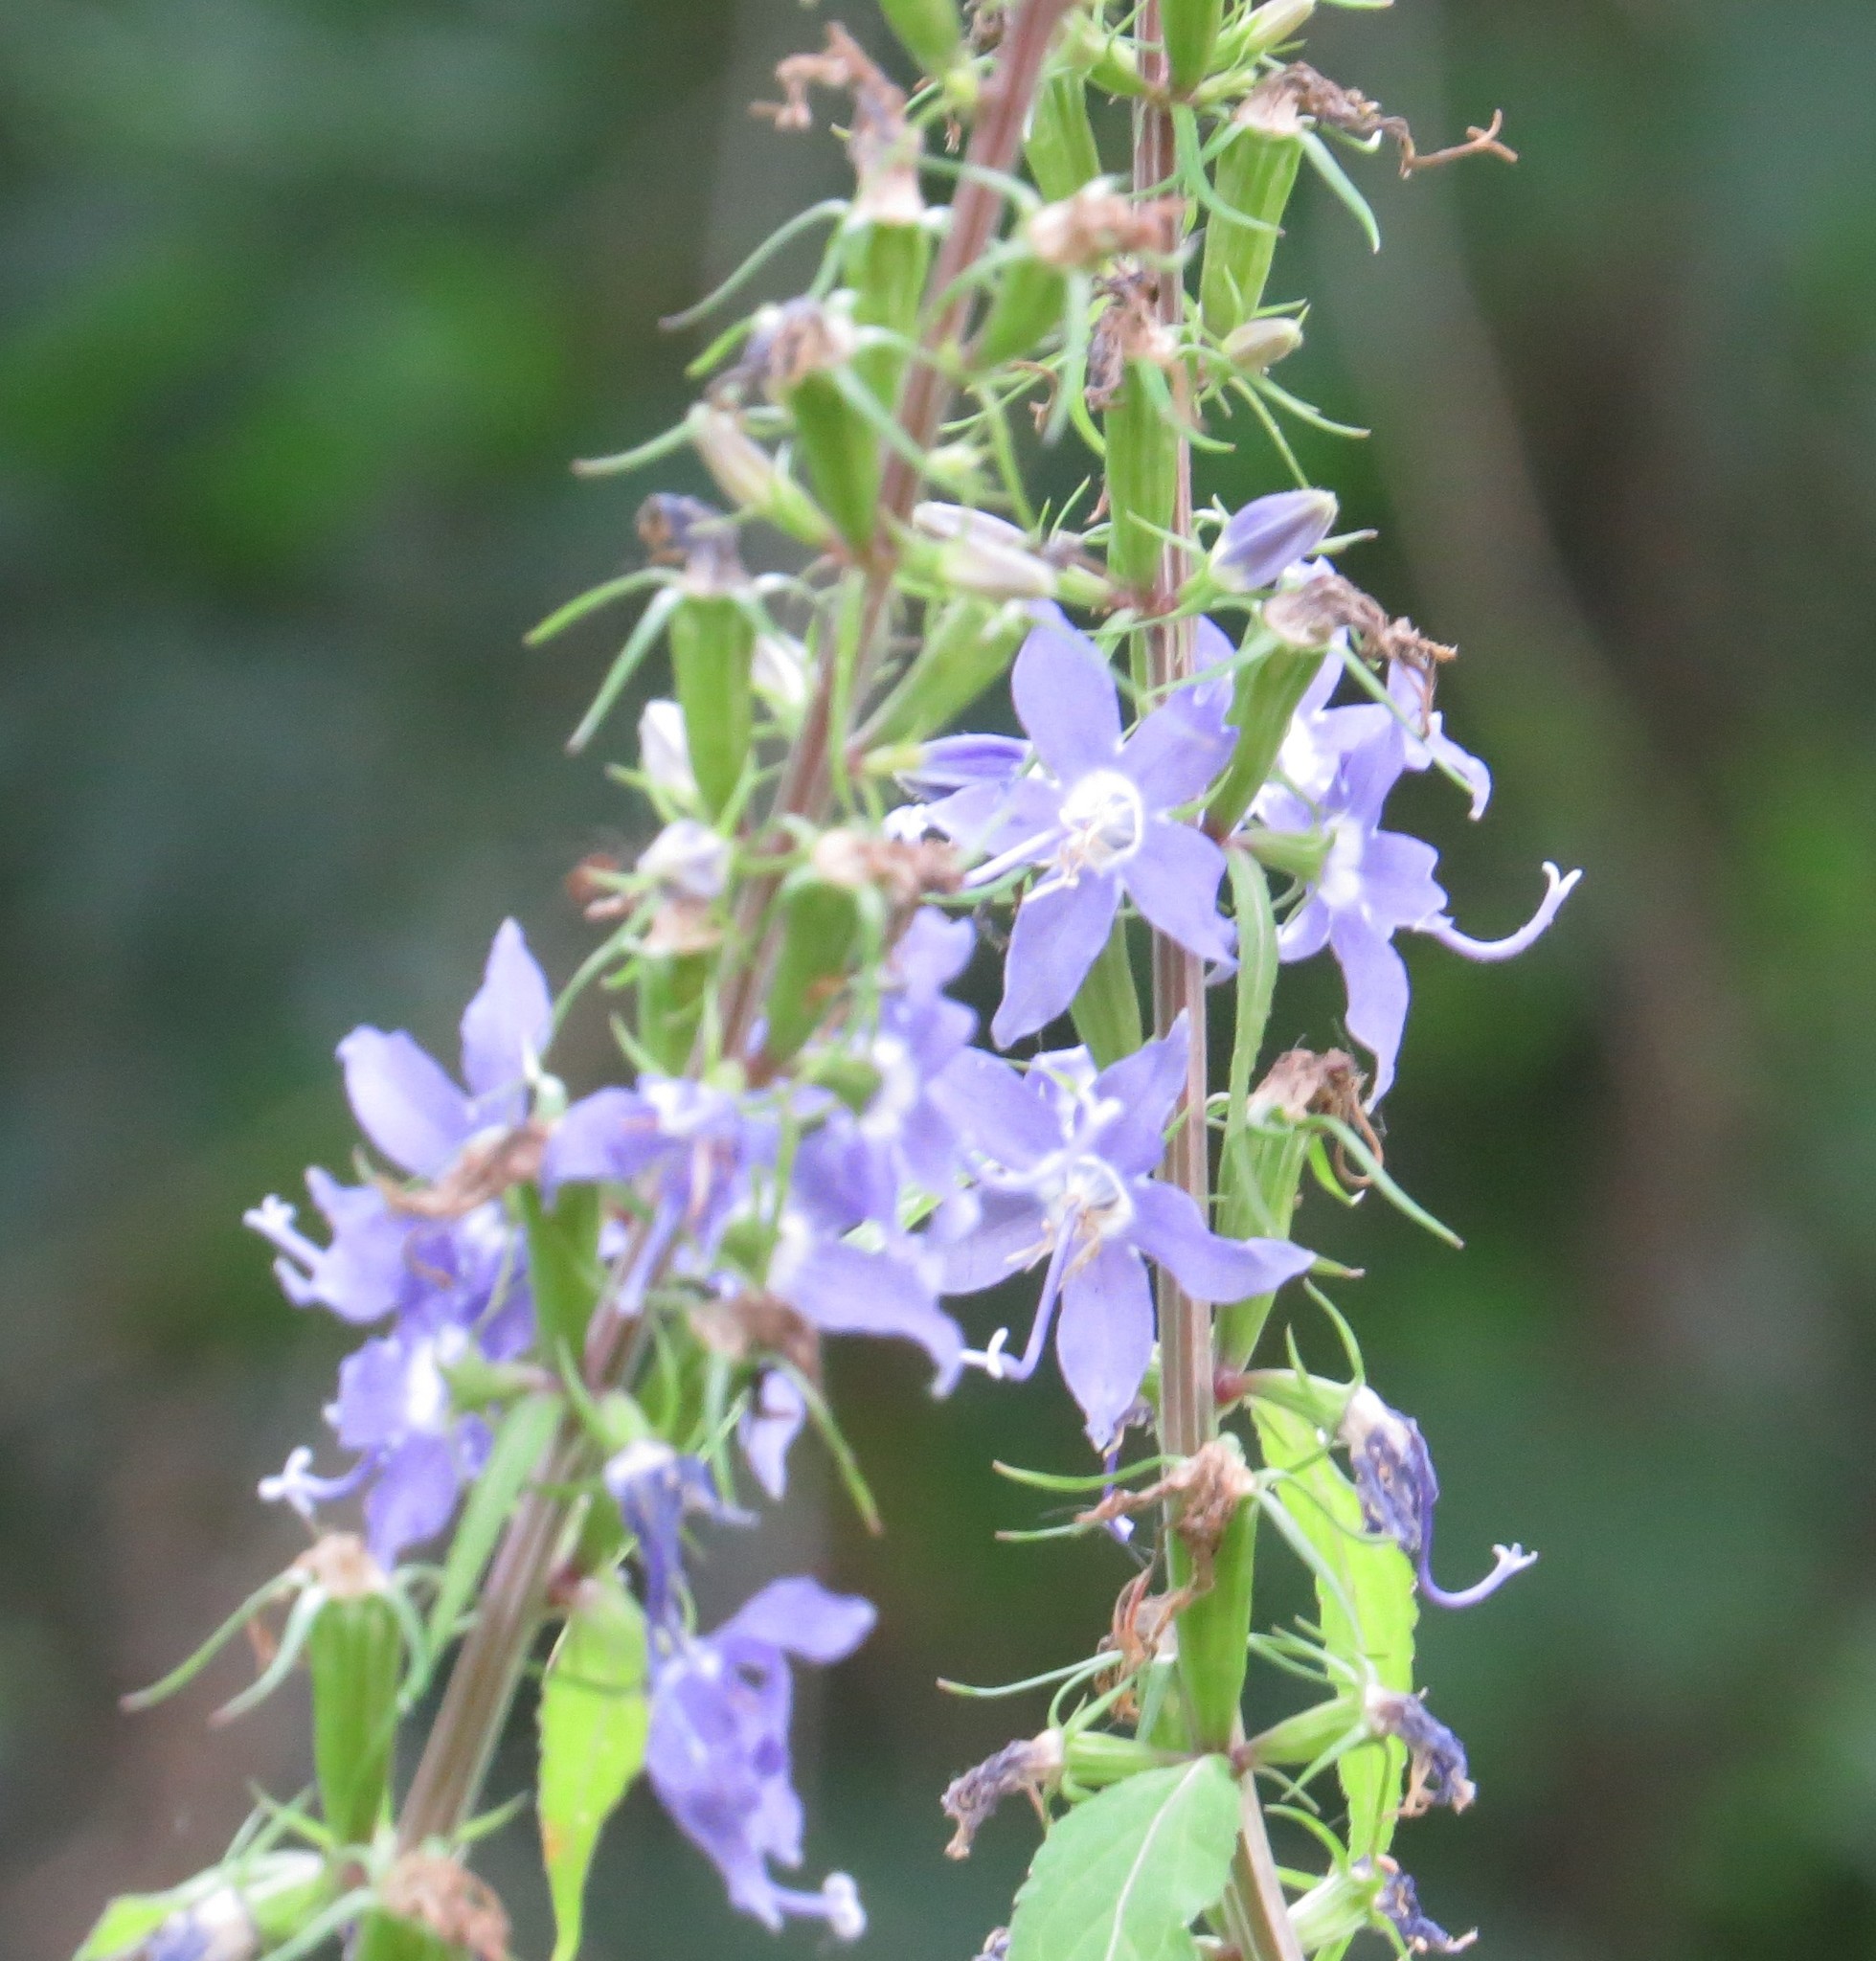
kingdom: Plantae
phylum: Tracheophyta
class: Magnoliopsida
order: Asterales
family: Campanulaceae
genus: Campanulastrum
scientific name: Campanulastrum americanum
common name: American bellflower
